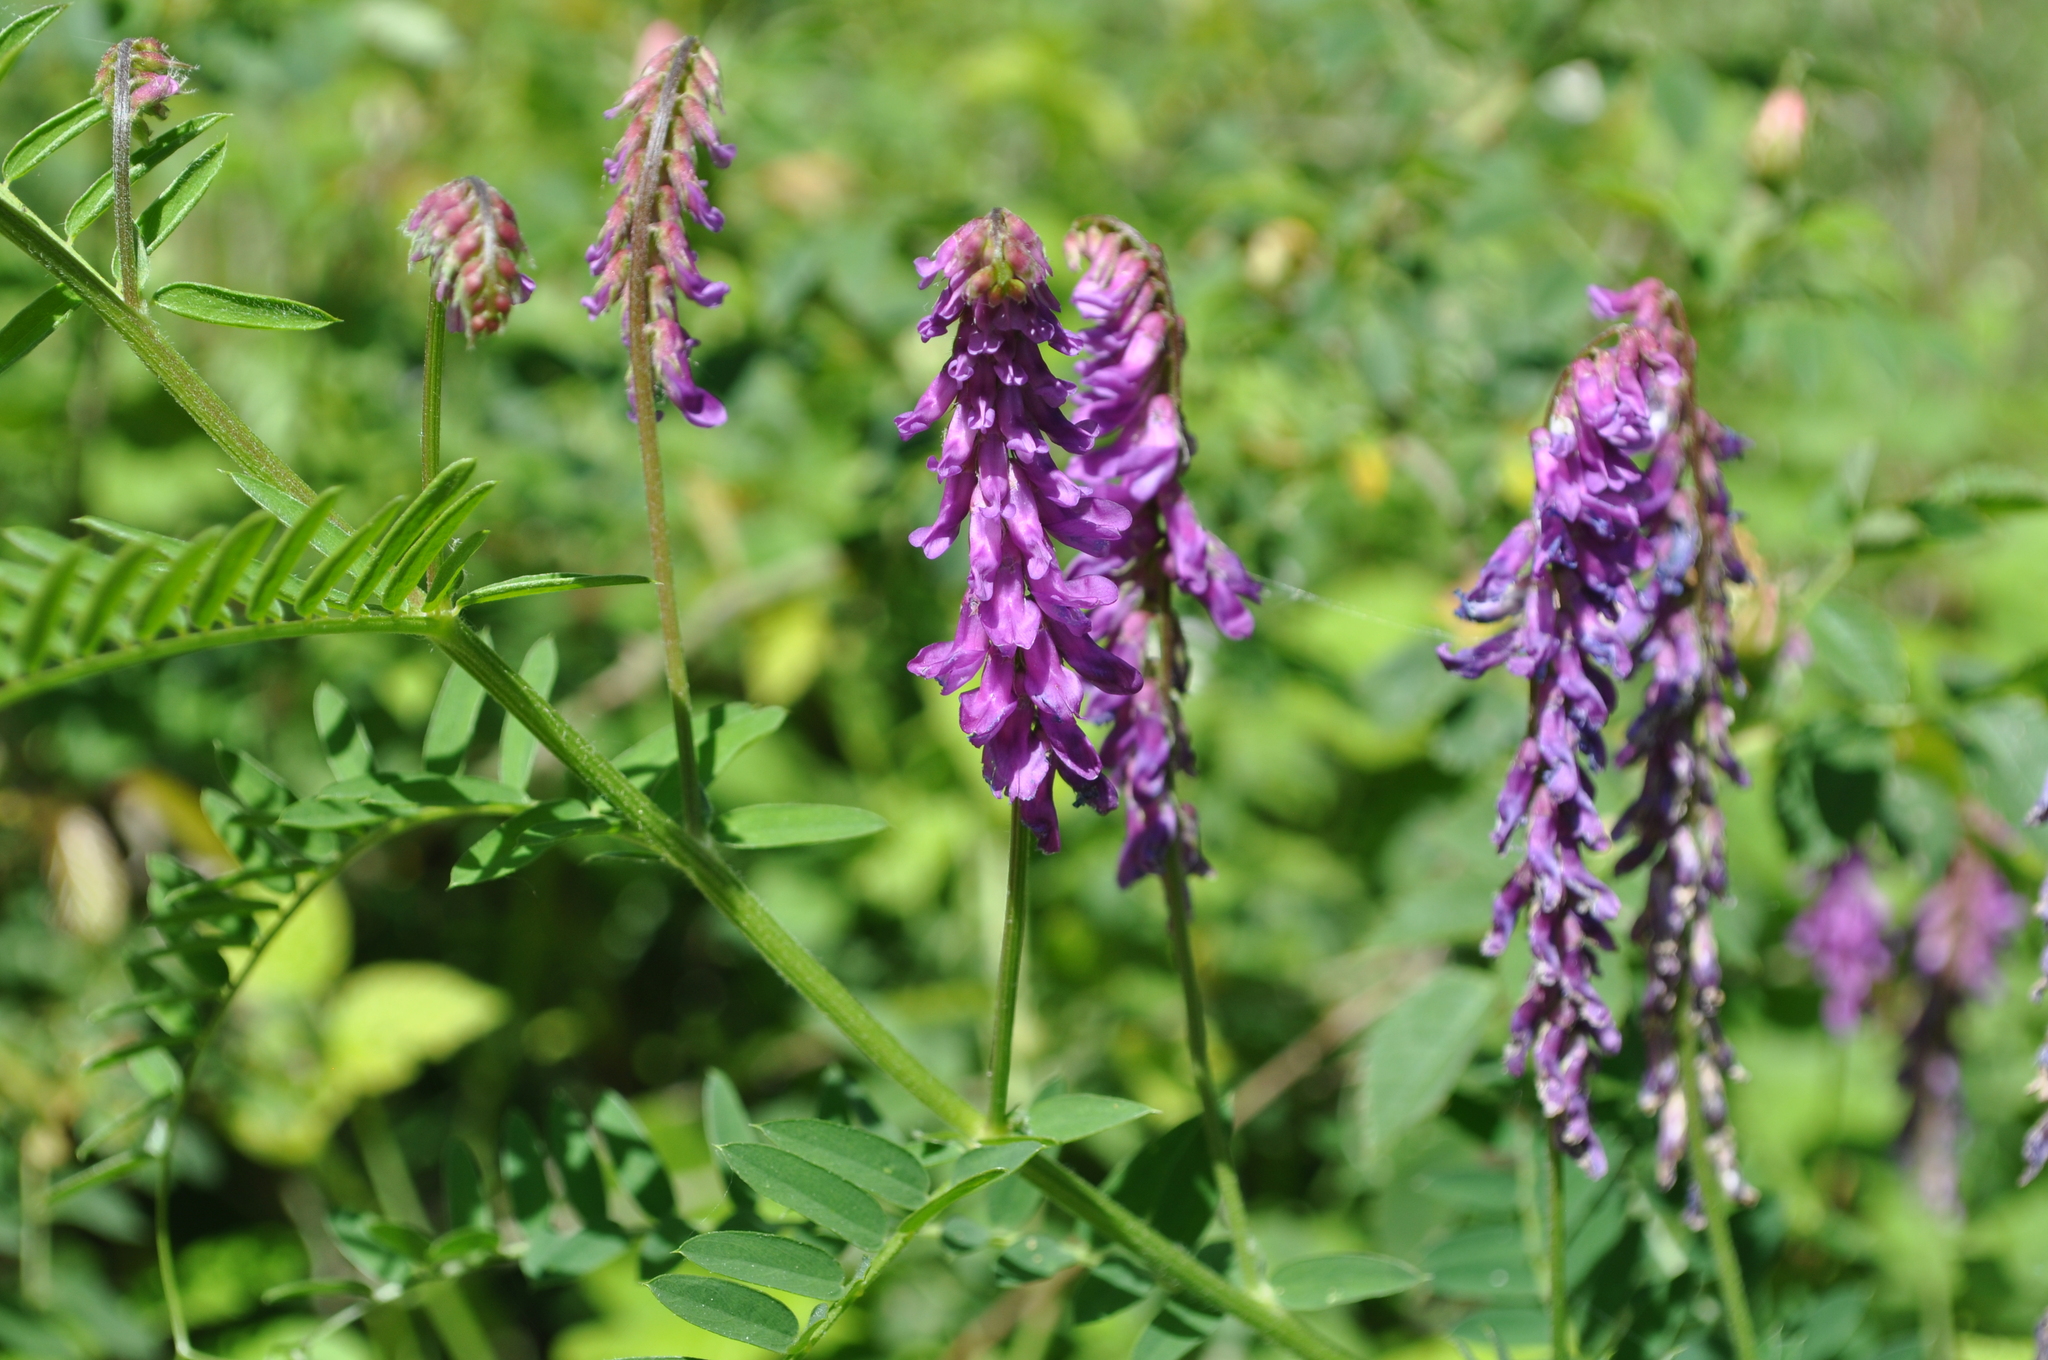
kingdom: Plantae
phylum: Tracheophyta
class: Magnoliopsida
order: Fabales
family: Fabaceae
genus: Vicia
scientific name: Vicia cracca
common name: Bird vetch
